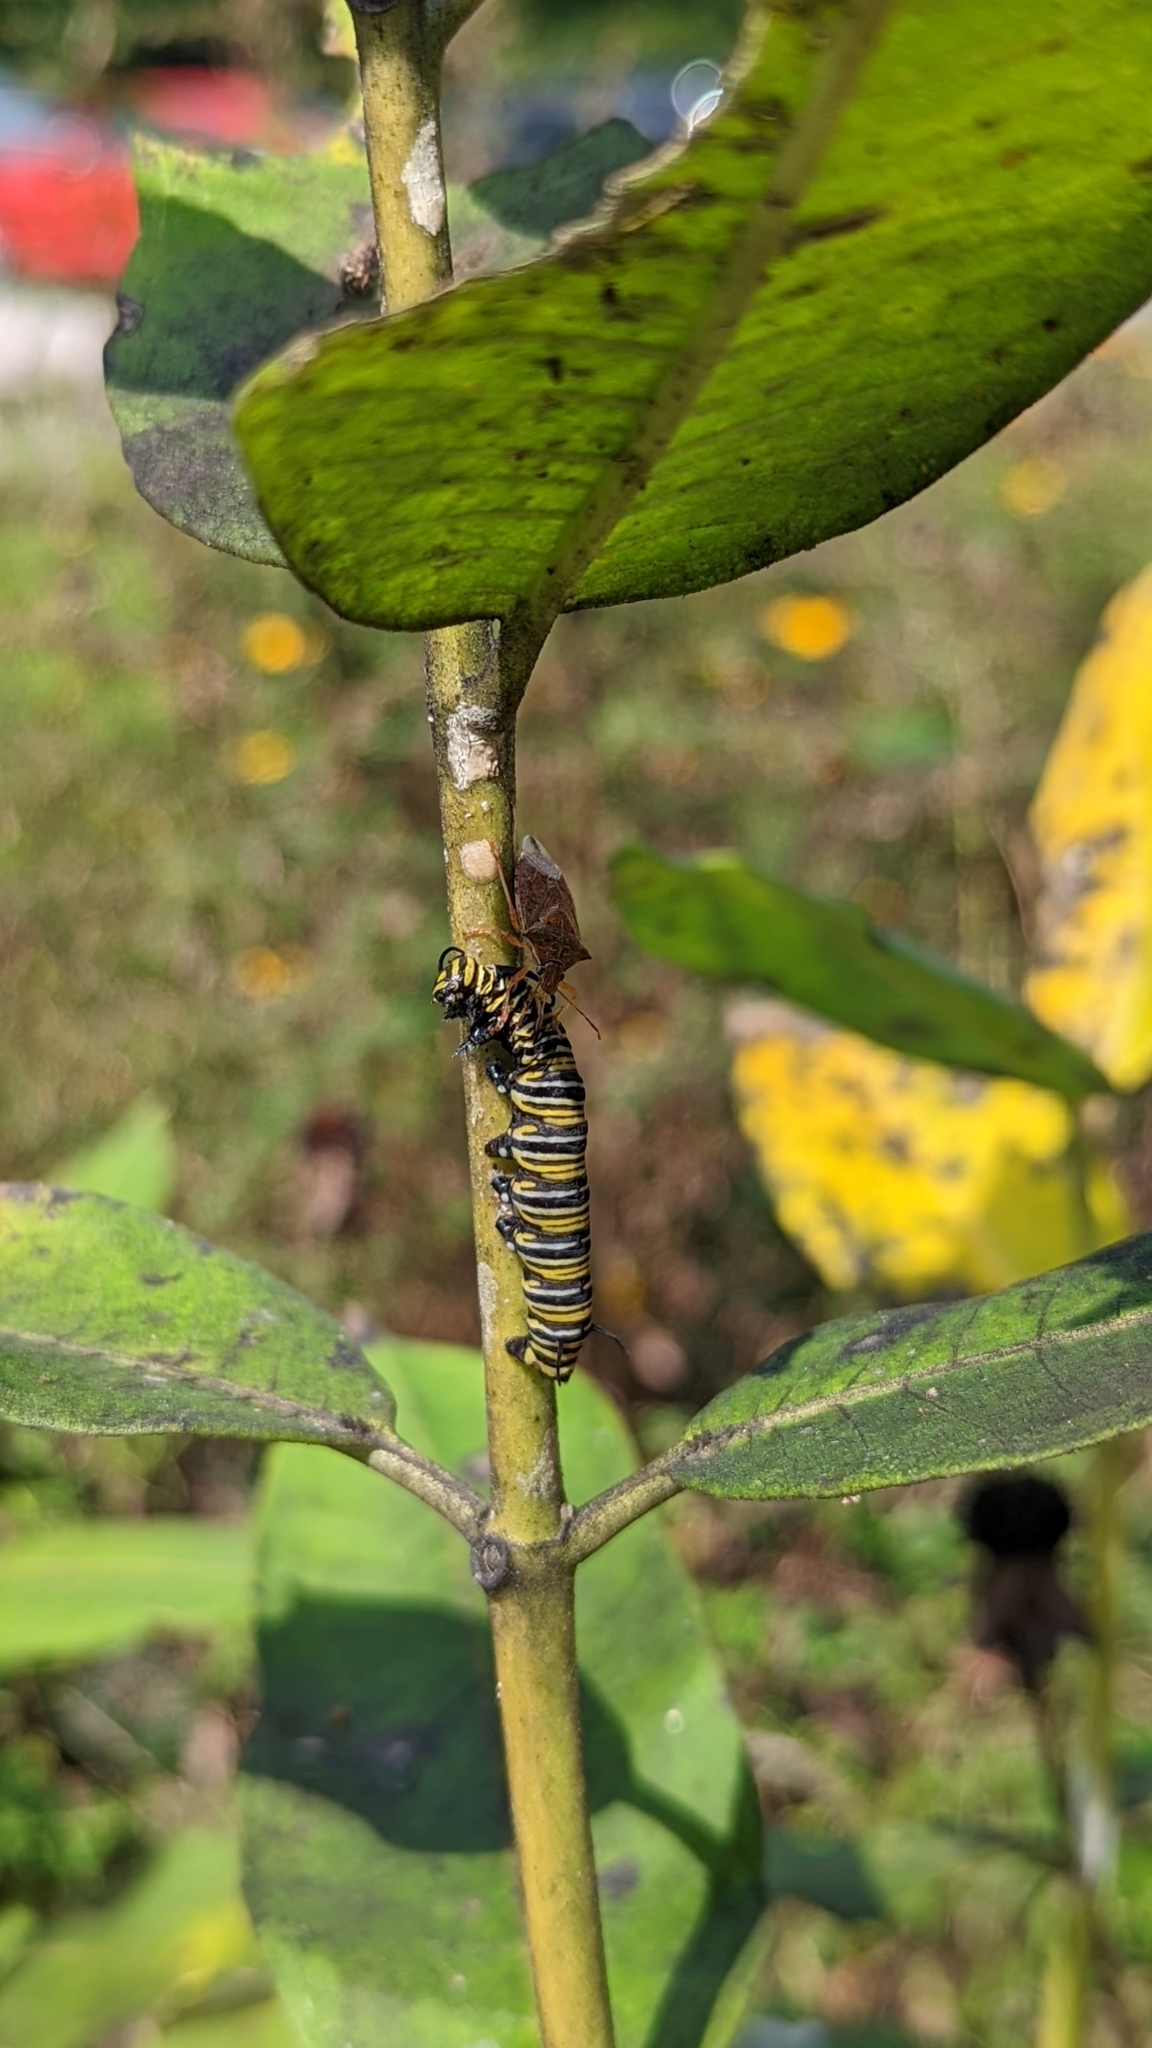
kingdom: Animalia
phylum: Arthropoda
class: Insecta
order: Lepidoptera
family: Nymphalidae
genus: Danaus
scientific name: Danaus plexippus
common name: Monarch
